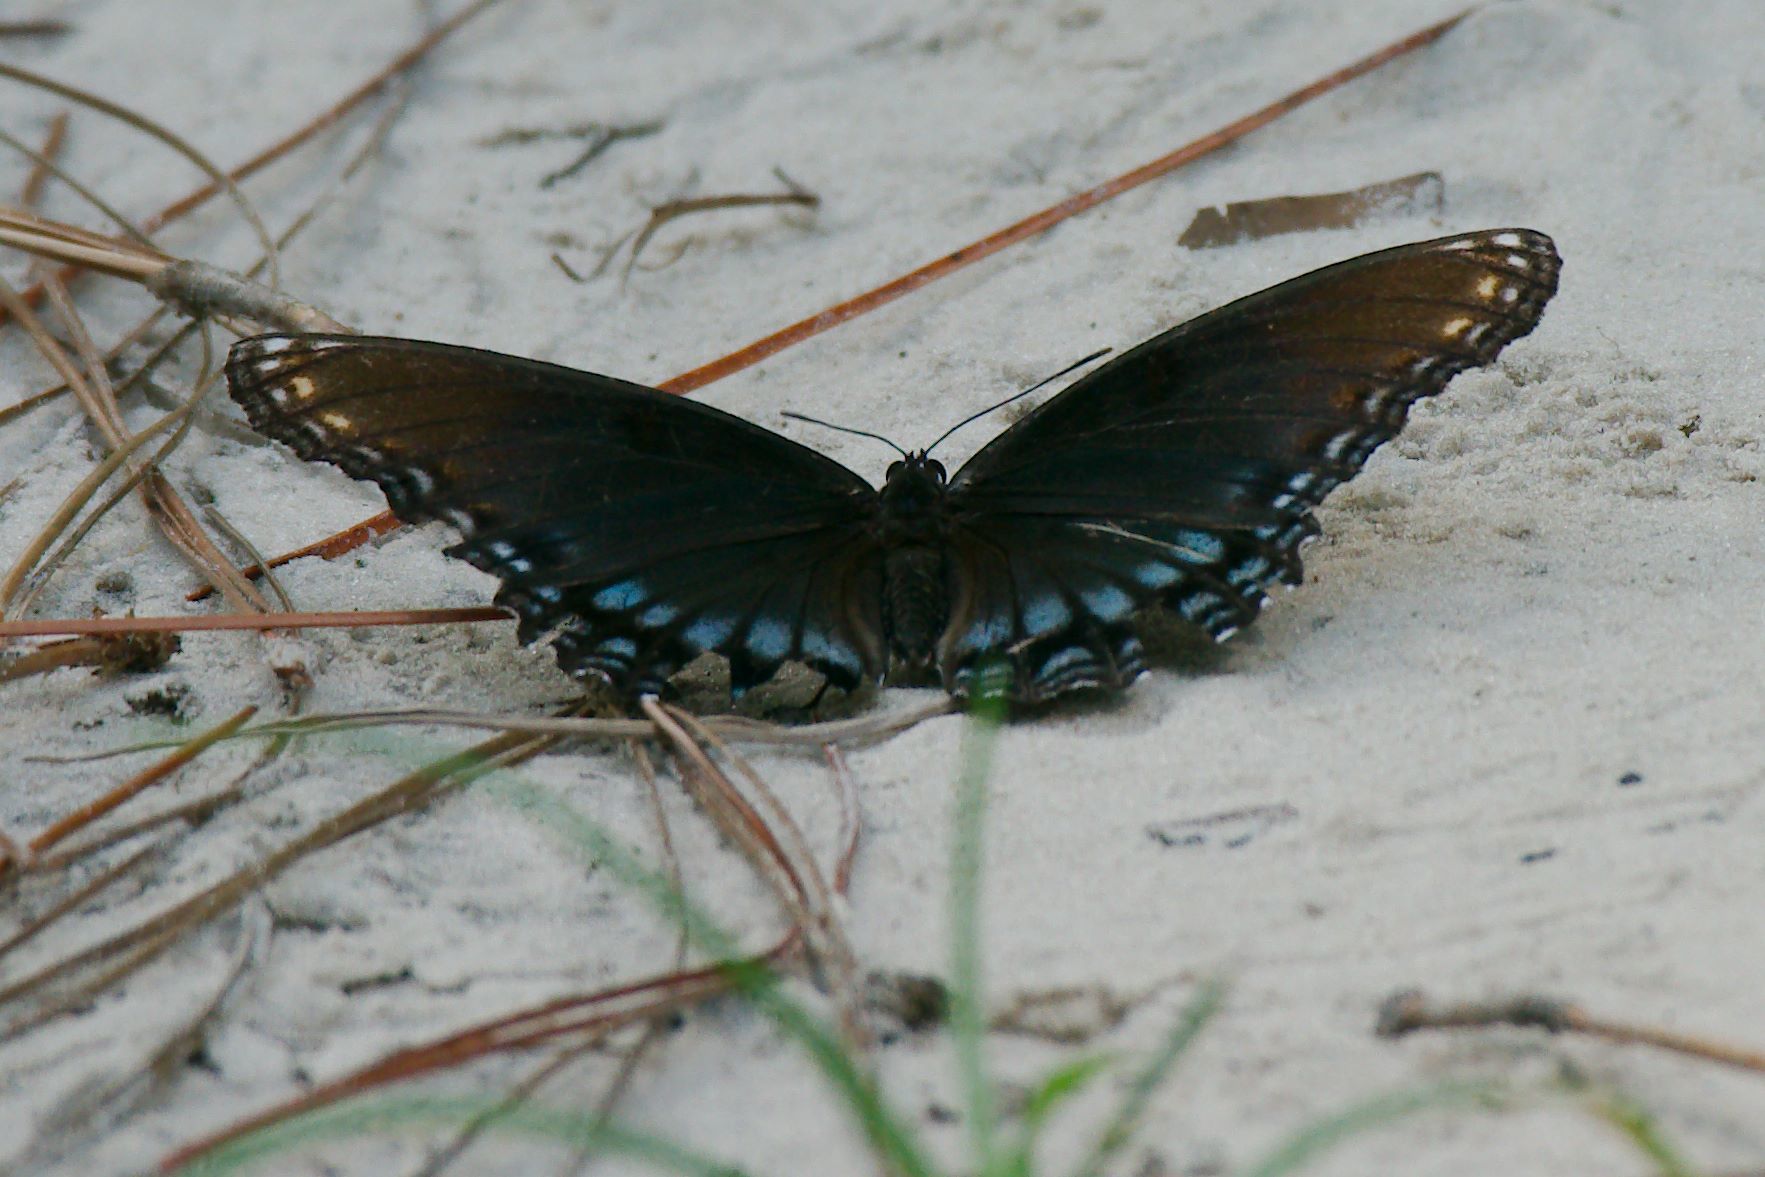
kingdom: Animalia
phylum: Arthropoda
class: Insecta
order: Lepidoptera
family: Nymphalidae
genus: Limenitis
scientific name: Limenitis arthemis
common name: Red-spotted admiral
